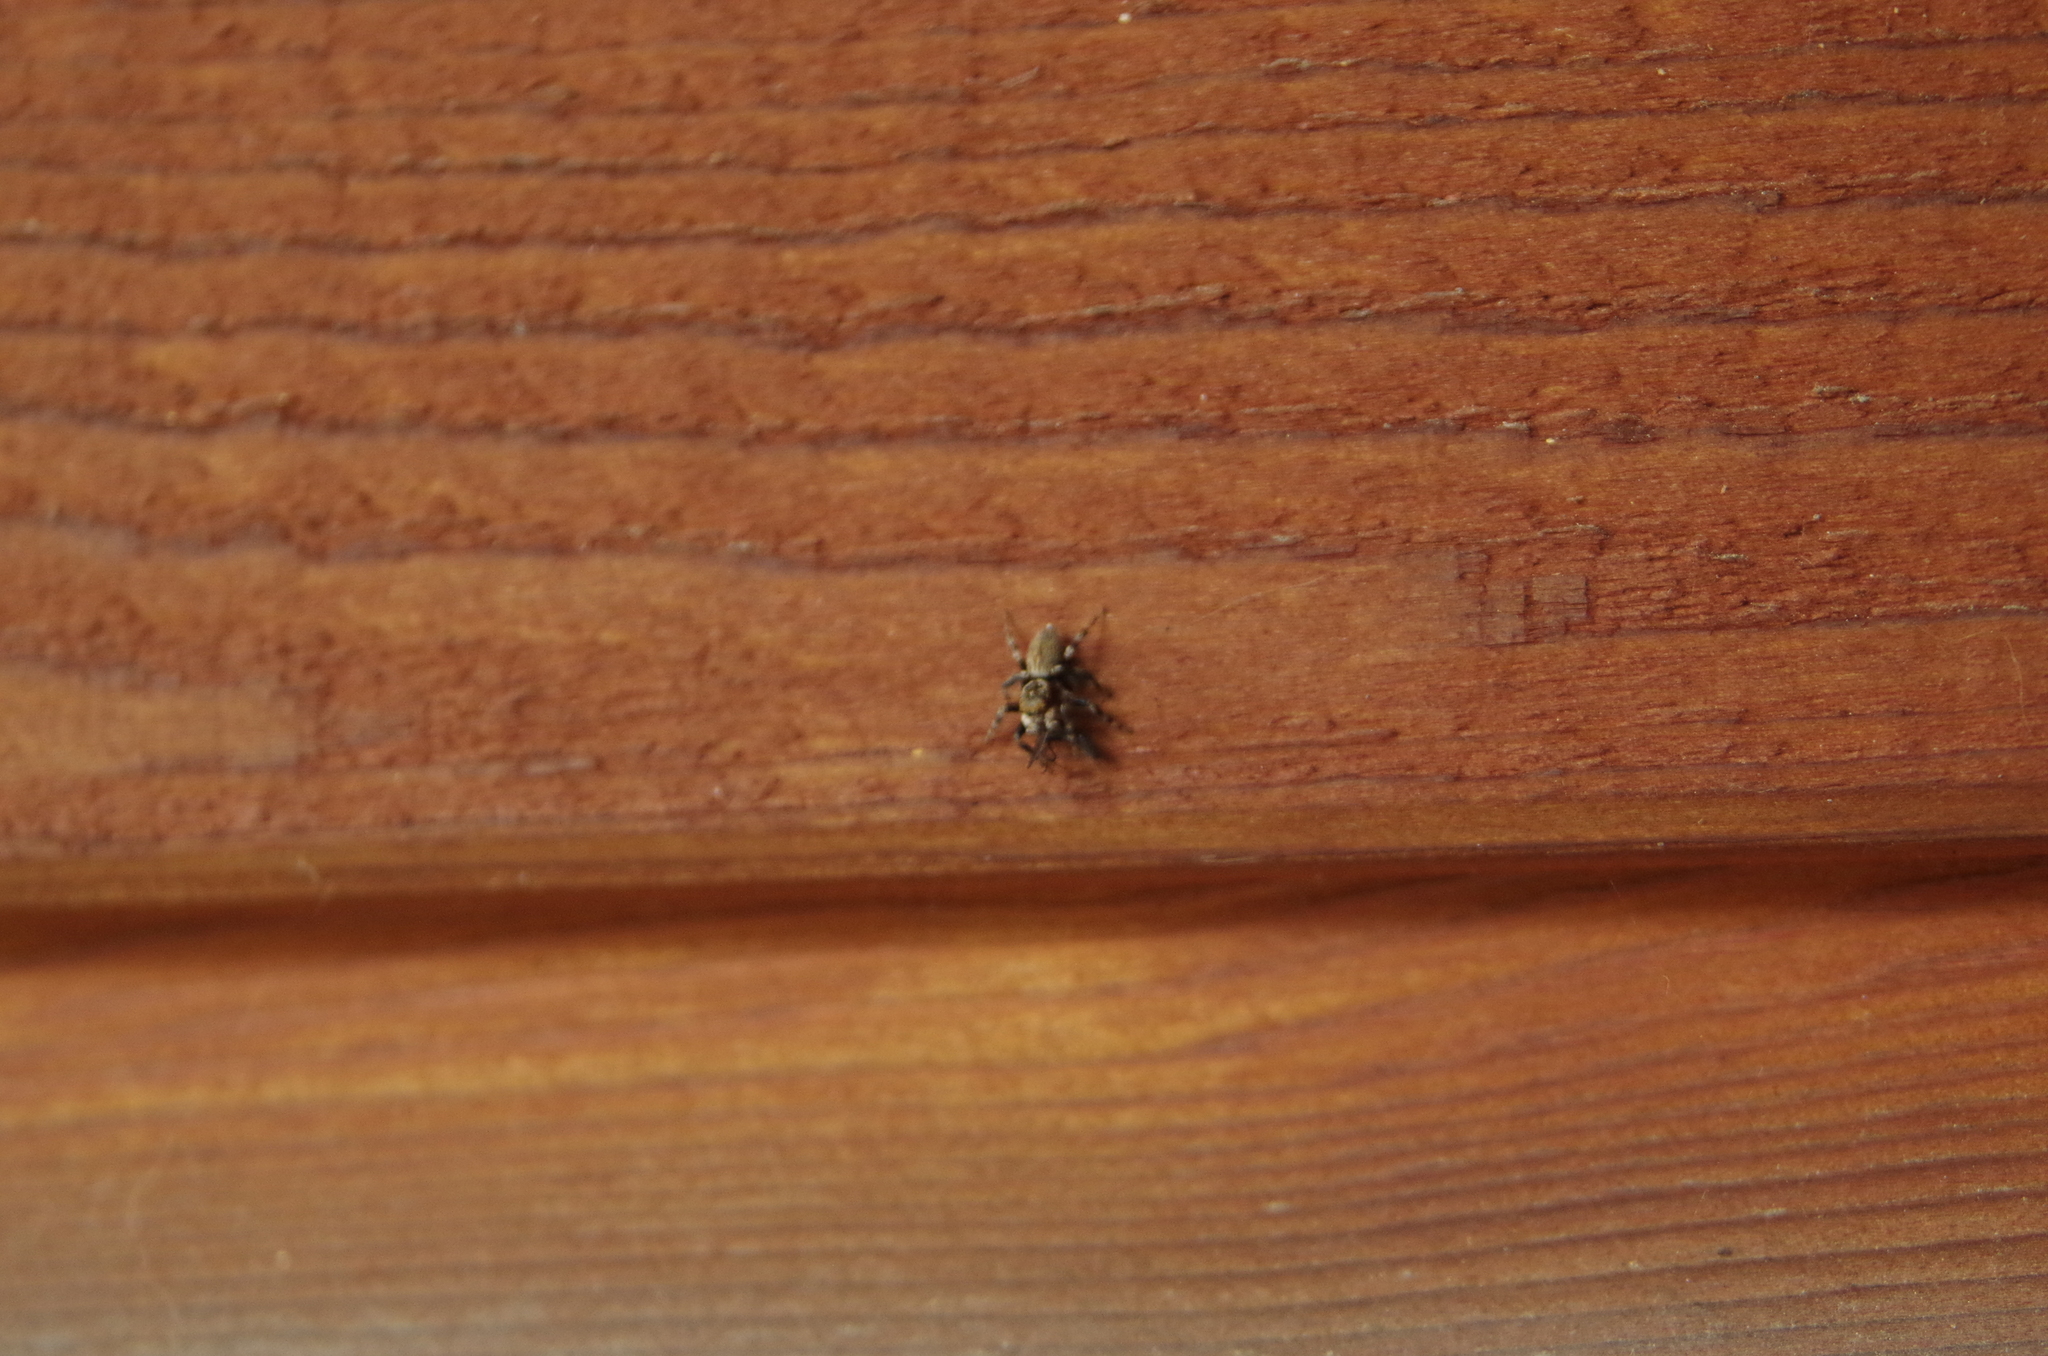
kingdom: Animalia
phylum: Arthropoda
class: Arachnida
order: Araneae
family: Salticidae
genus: Maratus
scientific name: Maratus griseus
